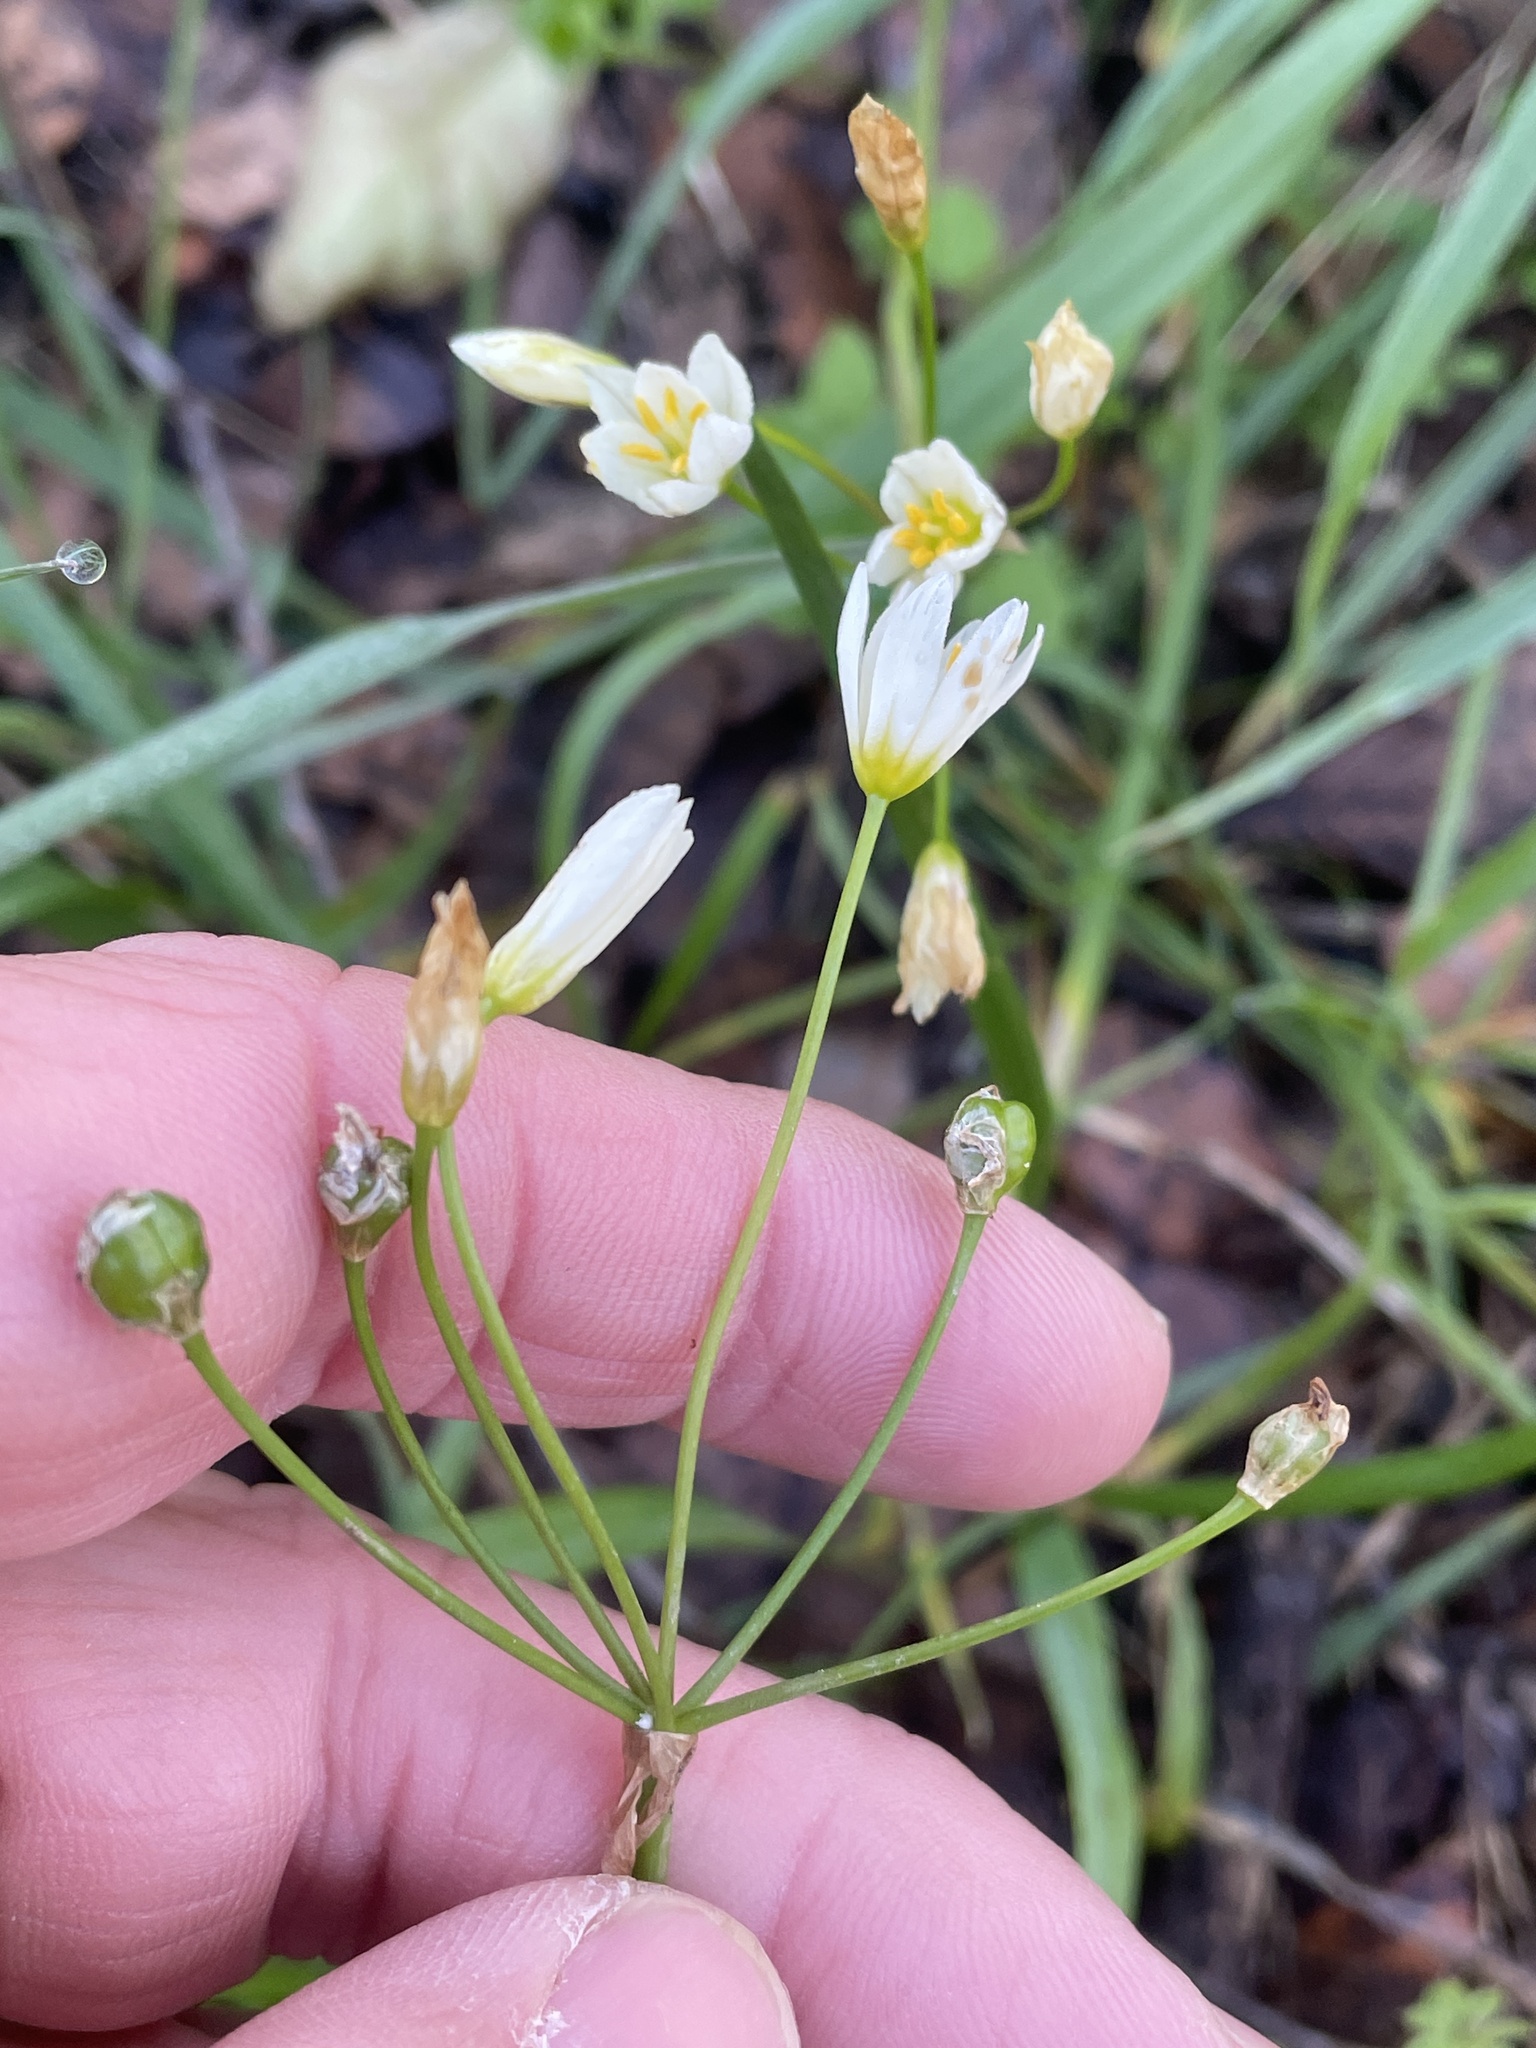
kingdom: Plantae
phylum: Tracheophyta
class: Liliopsida
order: Asparagales
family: Amaryllidaceae
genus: Nothoscordum
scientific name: Nothoscordum bivalve
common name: Crow-poison
